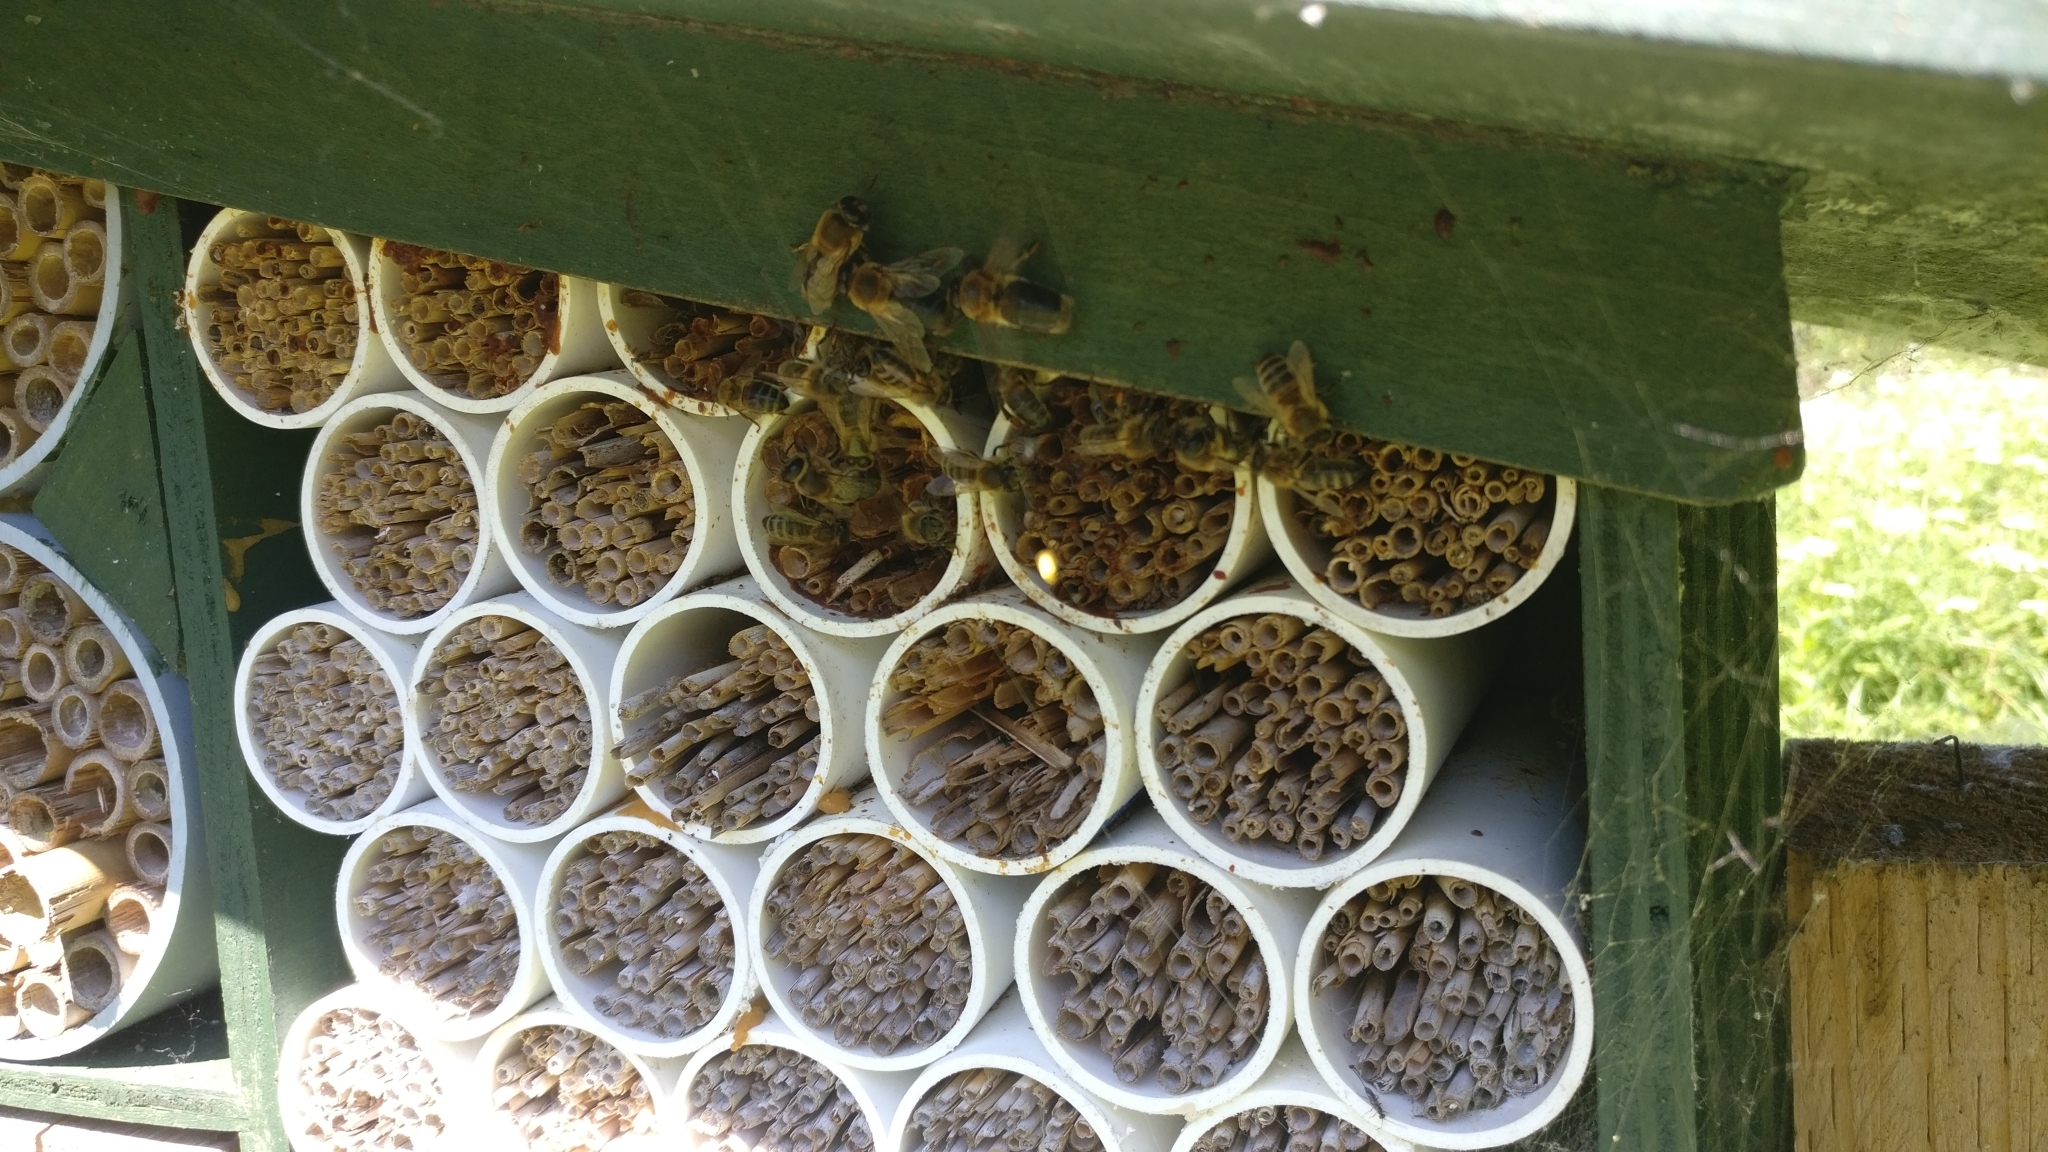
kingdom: Animalia
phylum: Arthropoda
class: Insecta
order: Hymenoptera
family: Apidae
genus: Apis
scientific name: Apis mellifera
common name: Honey bee
